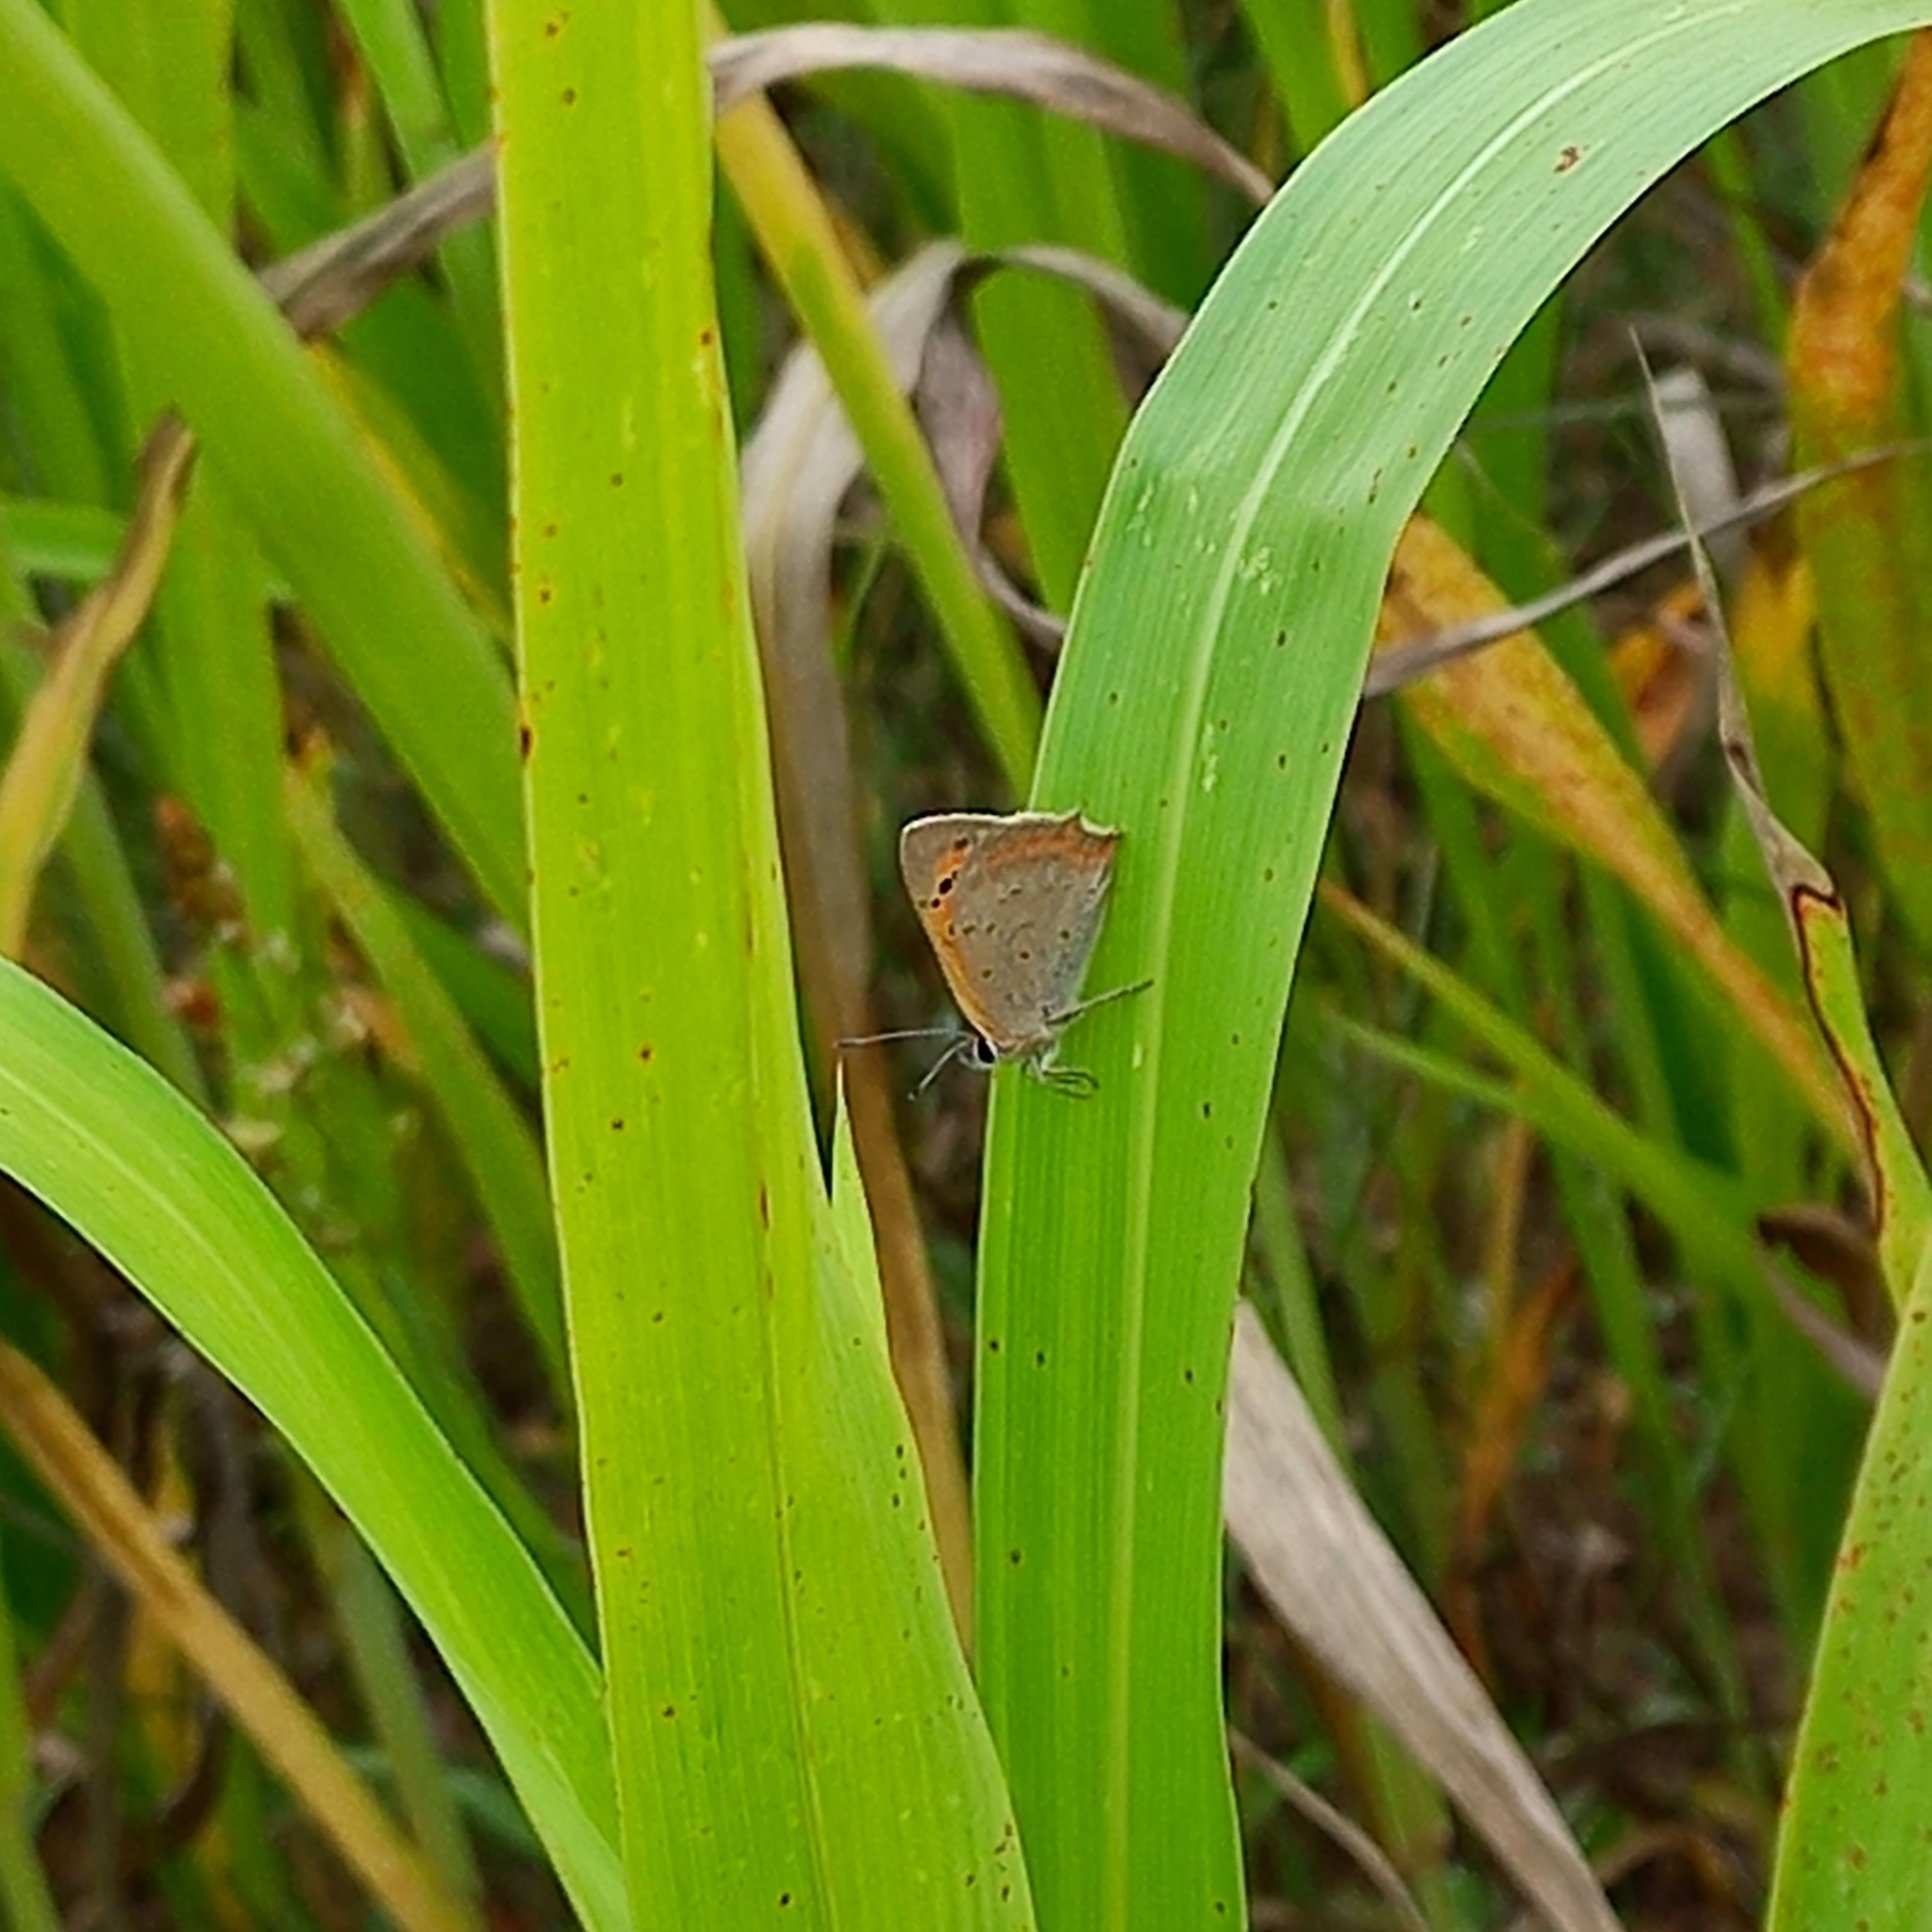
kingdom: Animalia
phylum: Arthropoda
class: Insecta
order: Lepidoptera
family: Lycaenidae
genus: Lycaena
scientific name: Lycaena phlaeas
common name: Small copper
